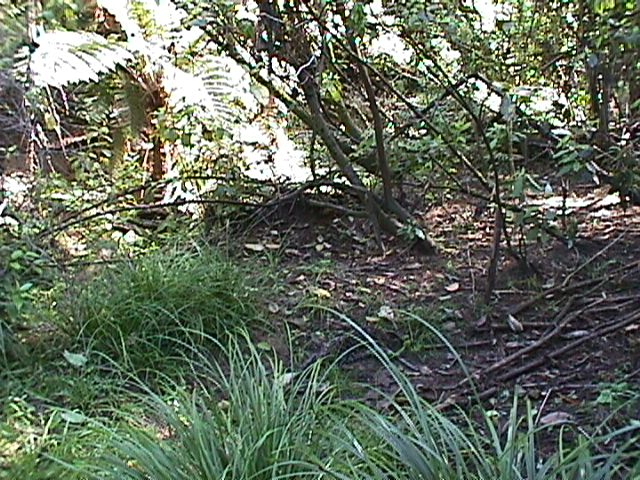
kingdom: Plantae
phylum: Tracheophyta
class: Polypodiopsida
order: Cyatheales
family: Cyatheaceae
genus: Alsophila
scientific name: Alsophila dealbata
